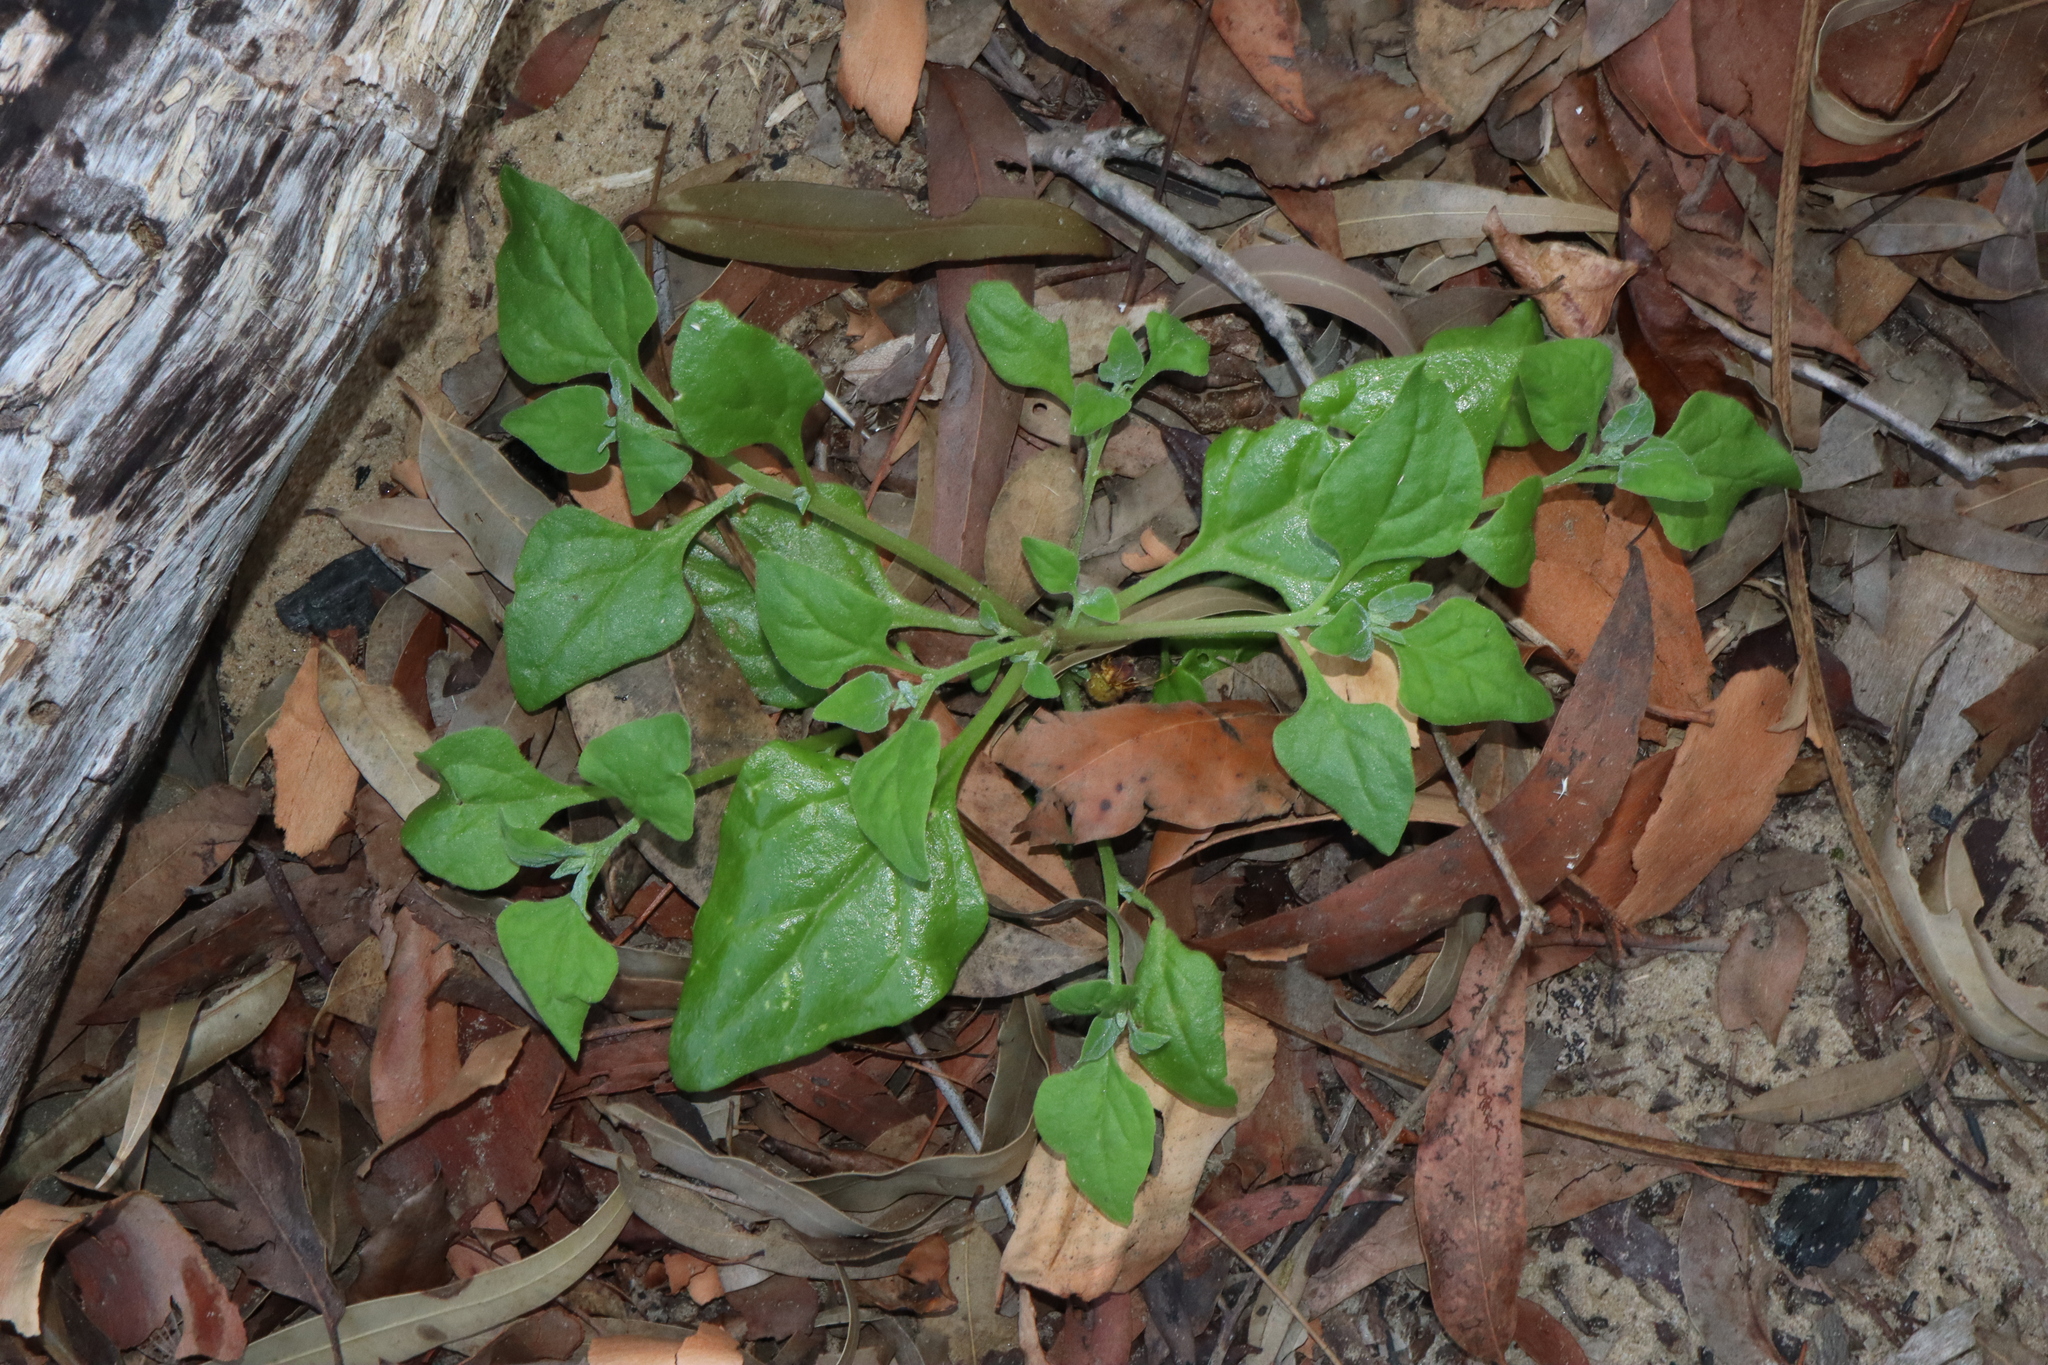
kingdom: Plantae
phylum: Tracheophyta
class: Magnoliopsida
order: Caryophyllales
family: Aizoaceae
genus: Tetragonia
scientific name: Tetragonia tetragonoides
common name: New zealand-spinach
